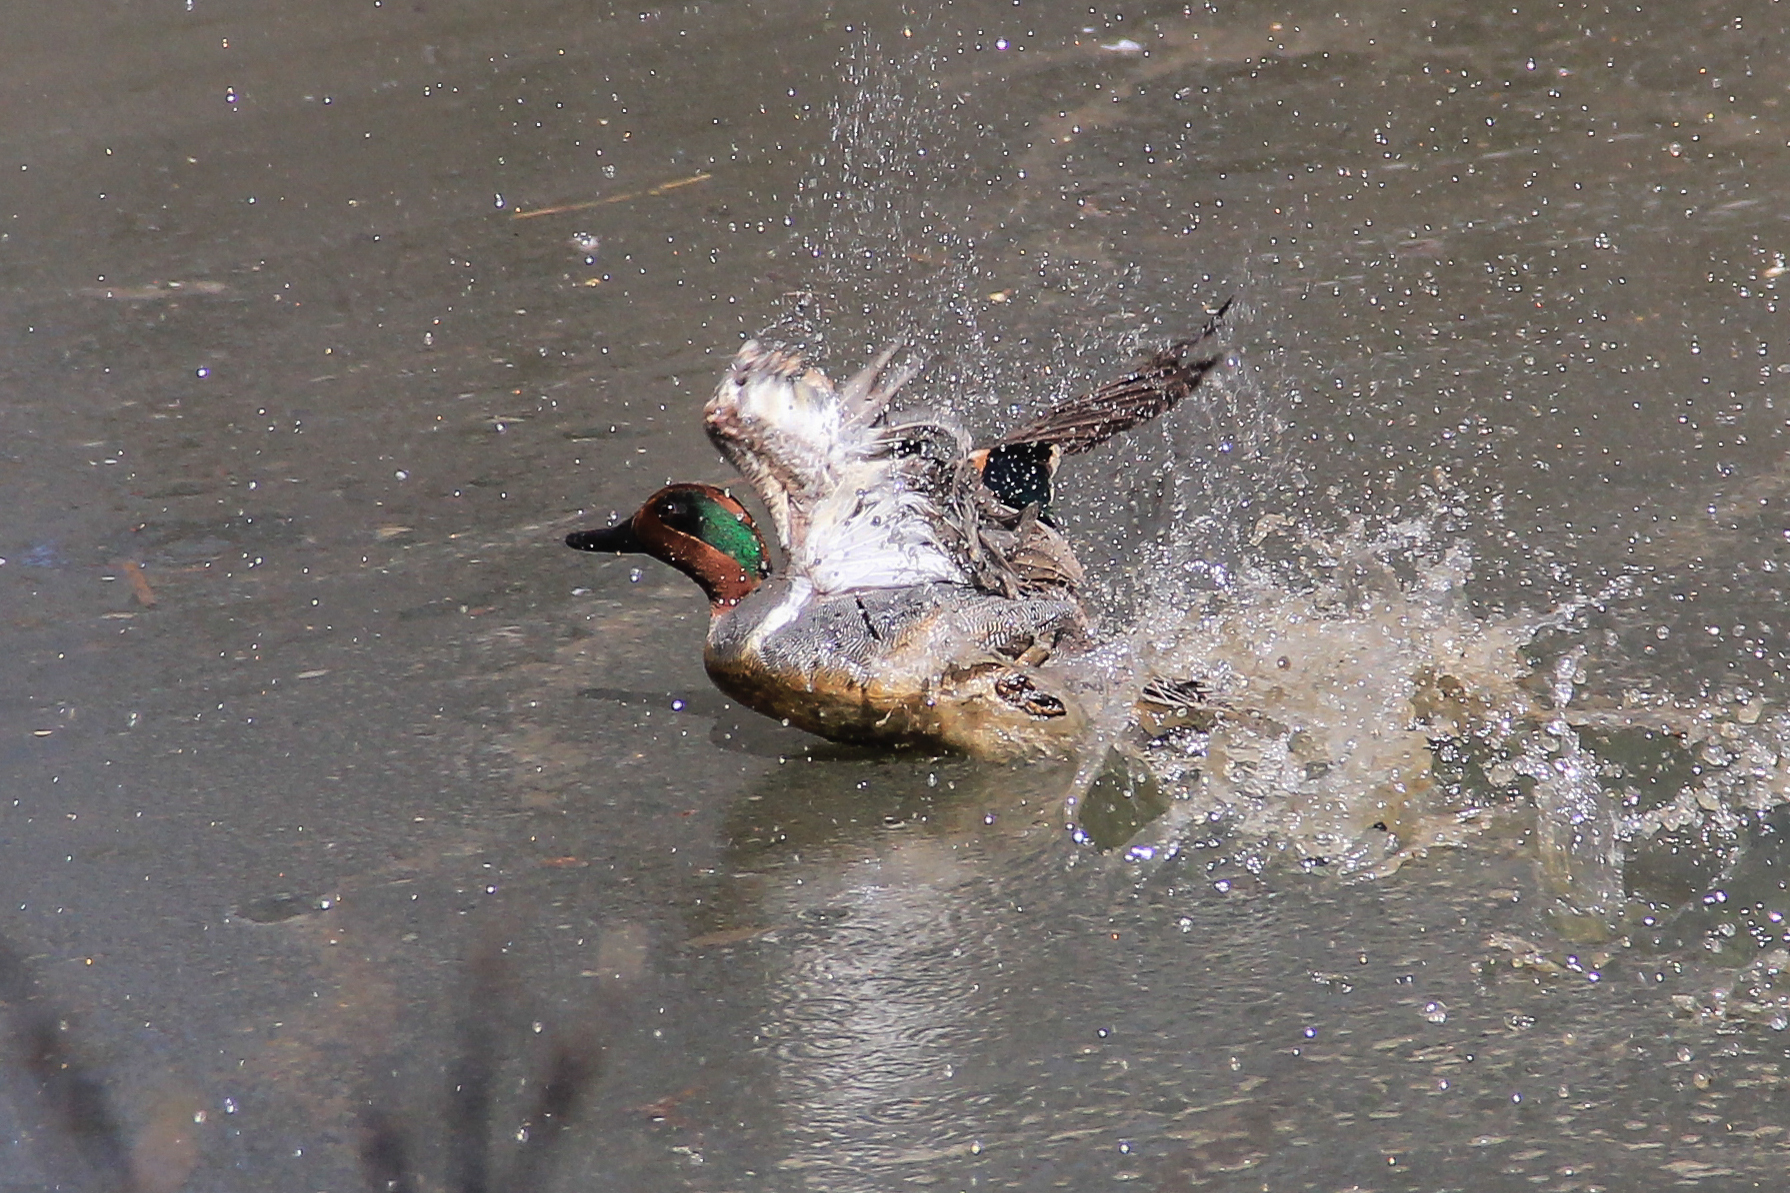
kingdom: Animalia
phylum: Chordata
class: Aves
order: Anseriformes
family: Anatidae
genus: Anas
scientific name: Anas crecca
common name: Eurasian teal
